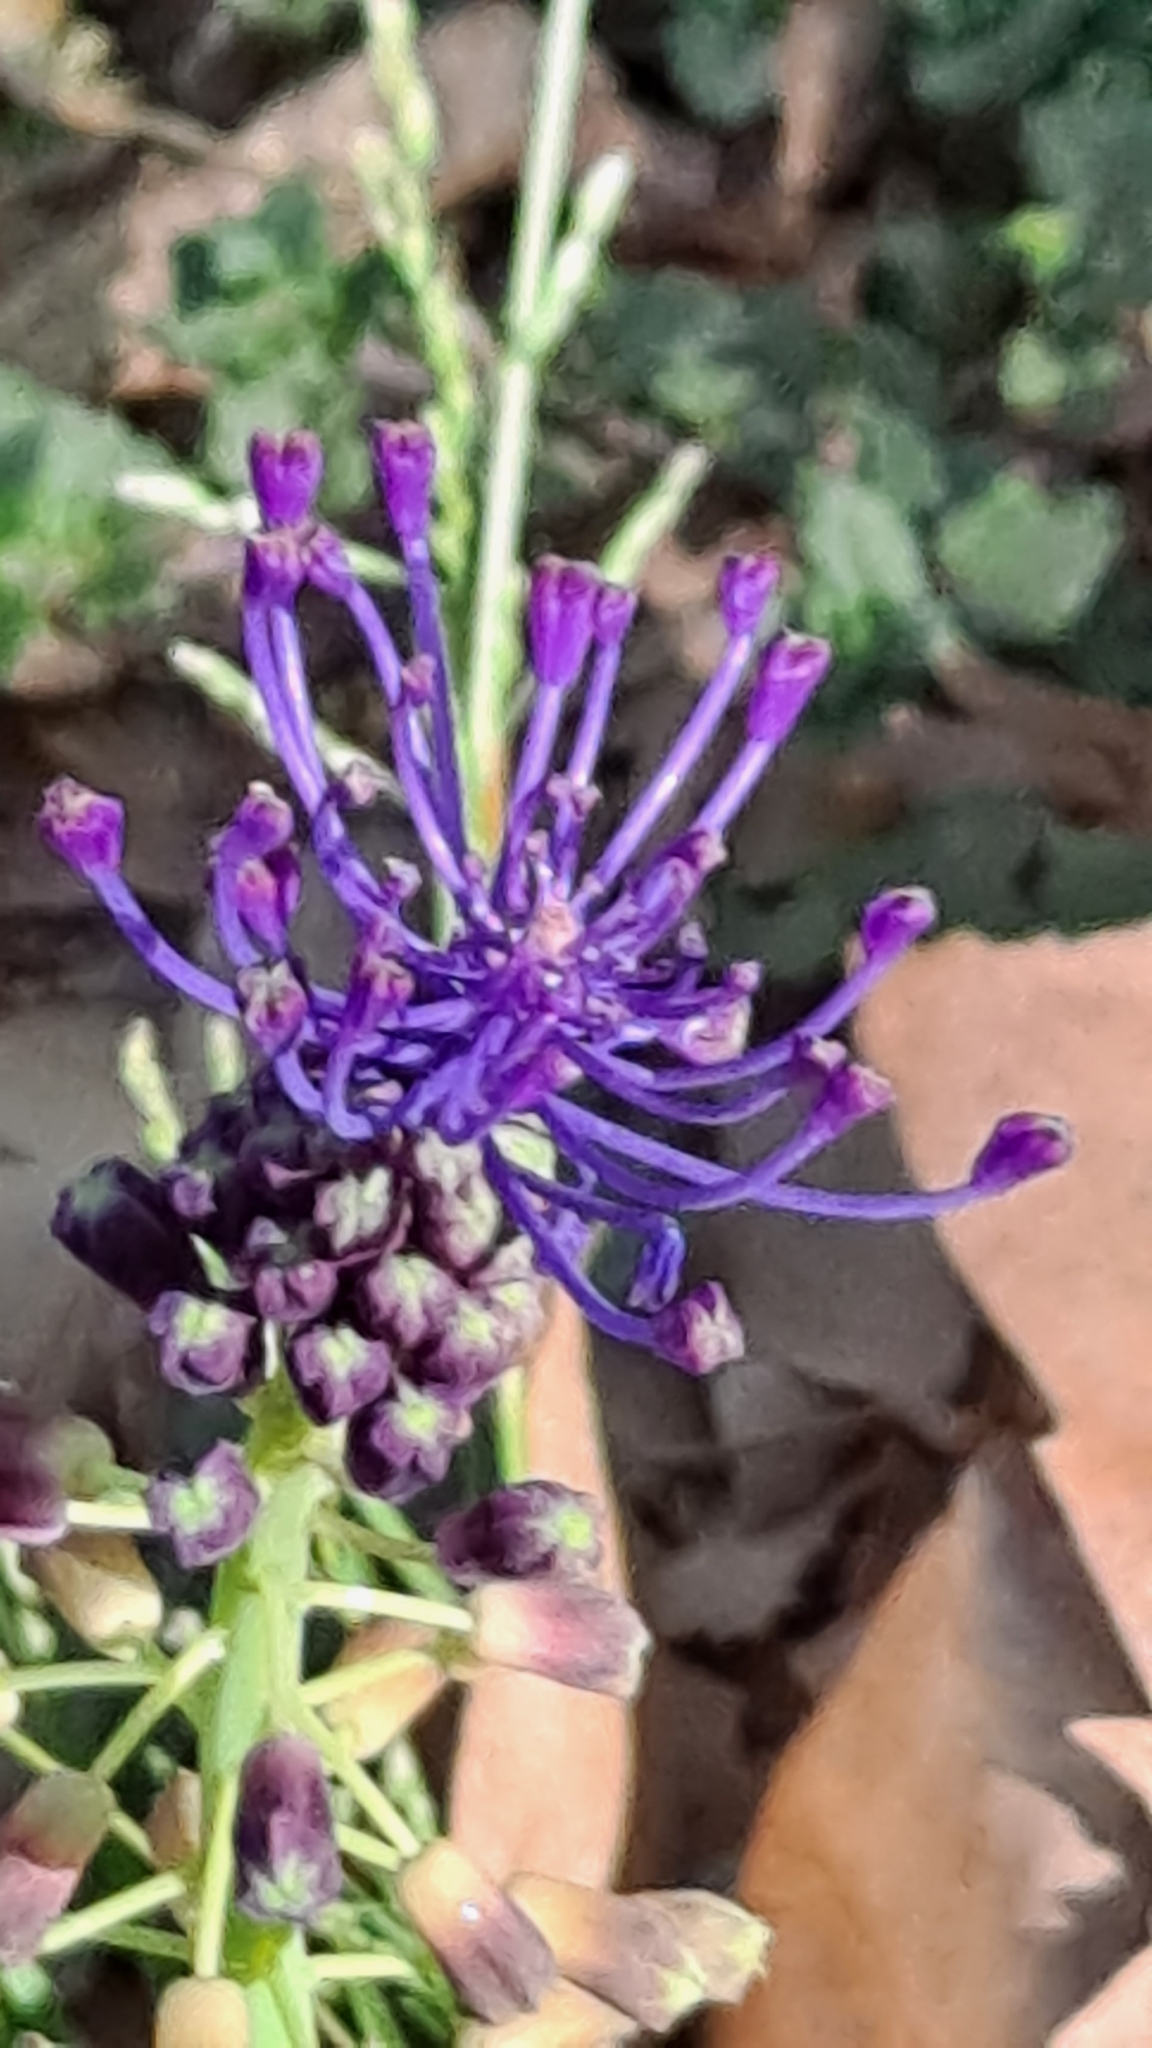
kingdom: Plantae
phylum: Tracheophyta
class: Liliopsida
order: Asparagales
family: Asparagaceae
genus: Muscari
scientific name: Muscari comosum
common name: Tassel hyacinth
